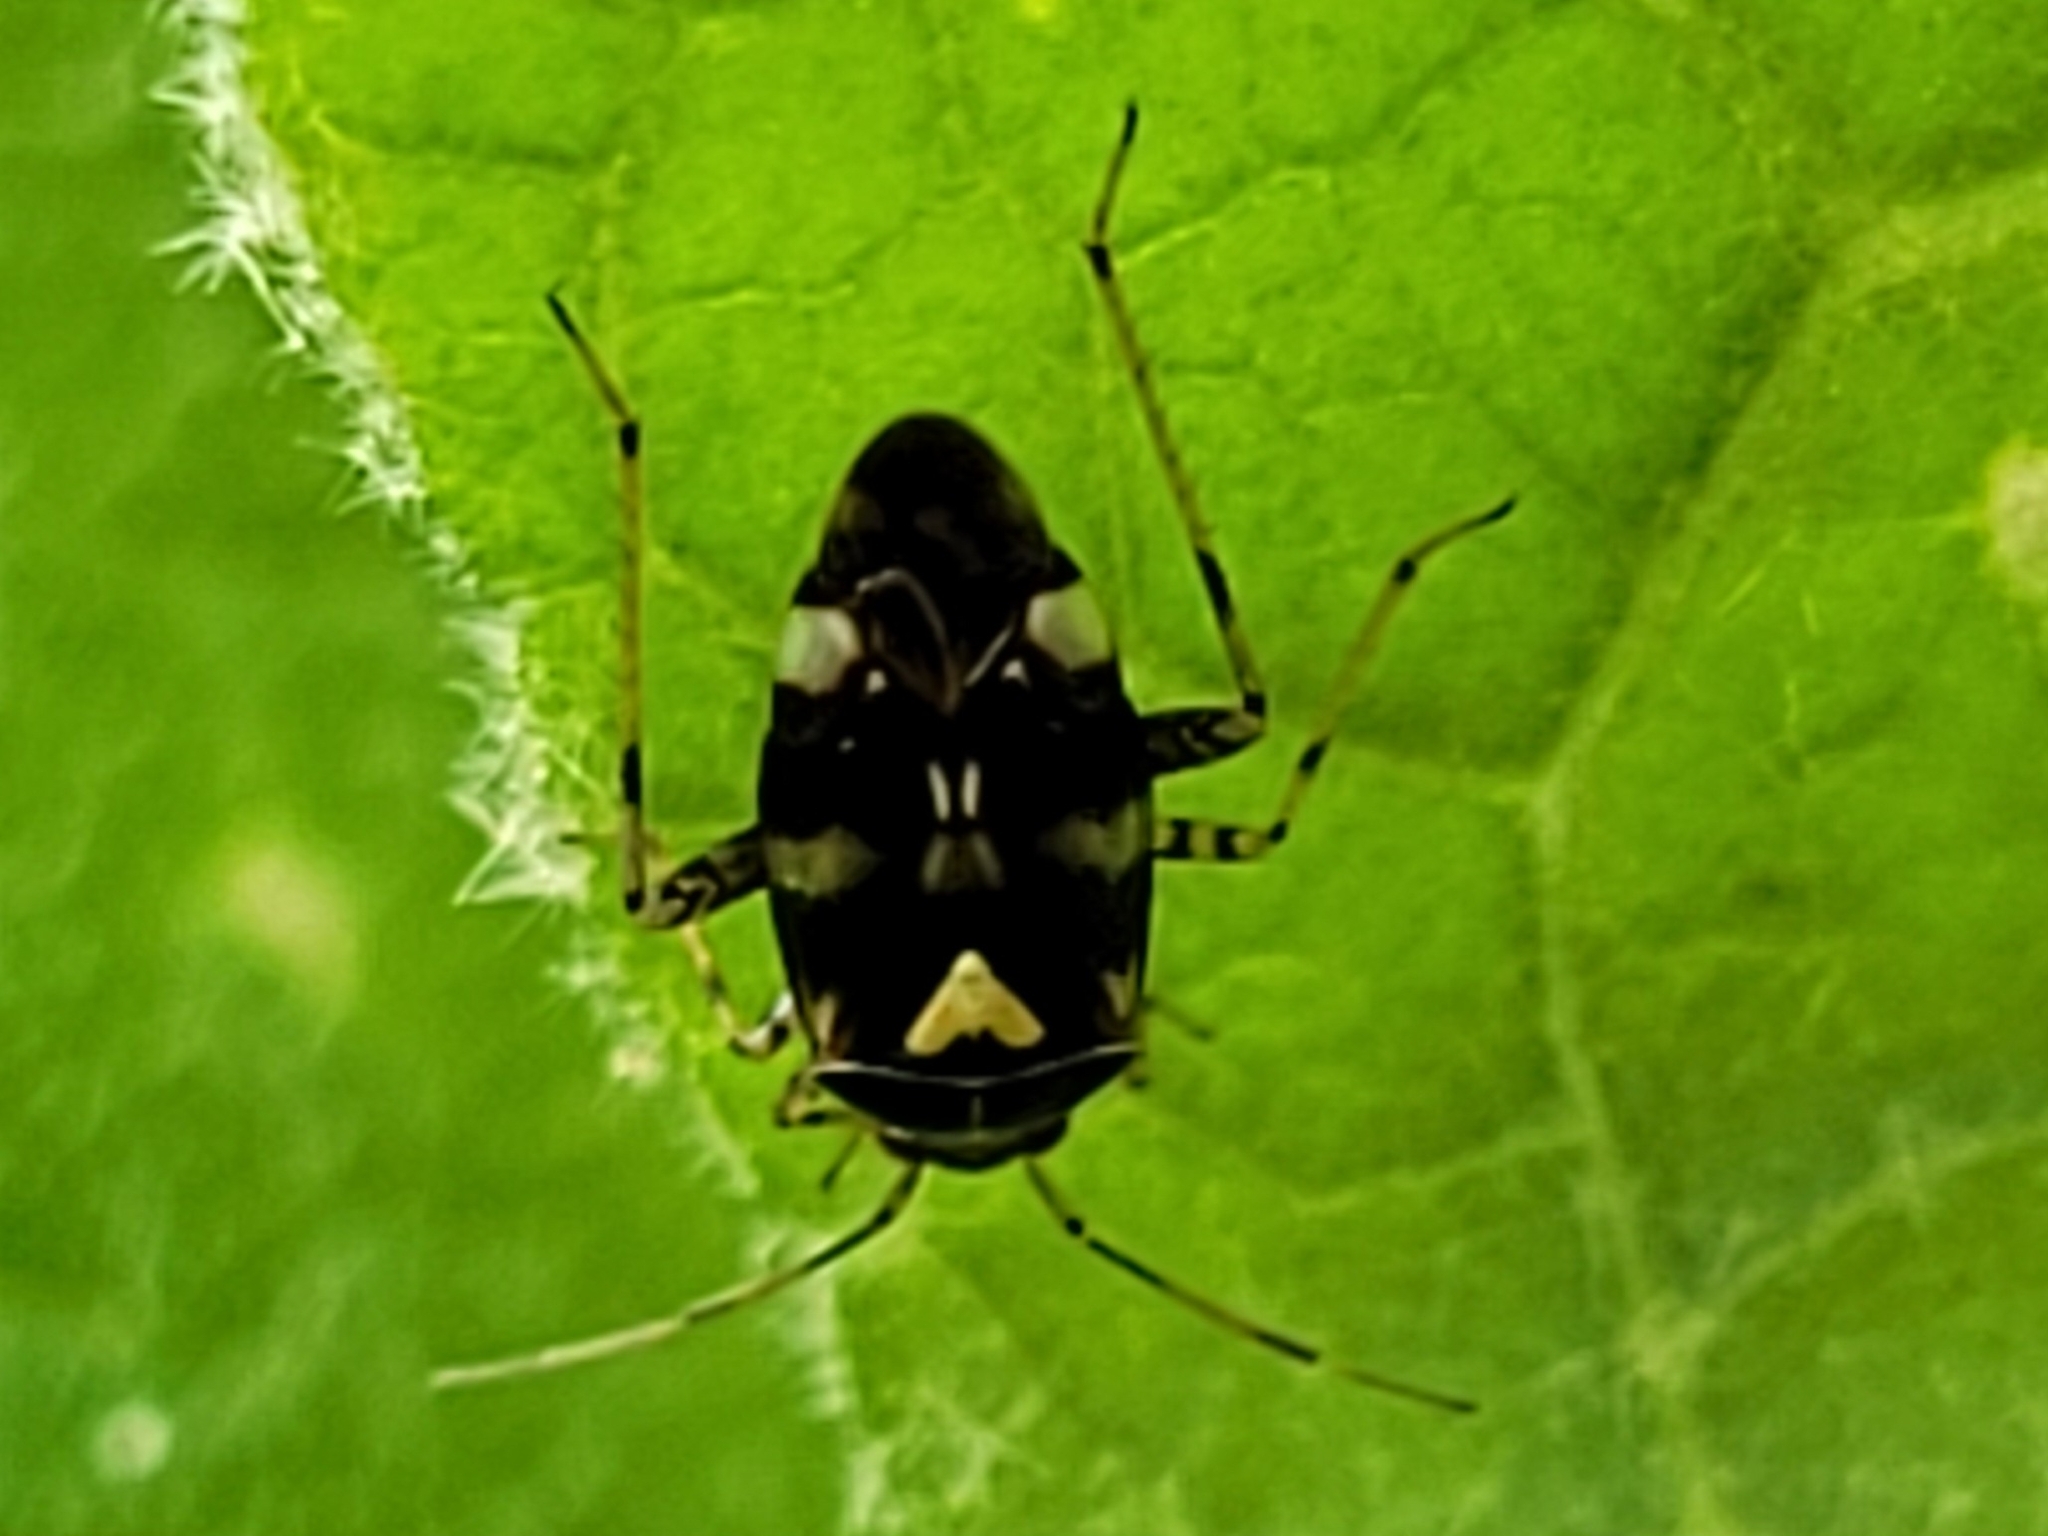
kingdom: Animalia
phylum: Arthropoda
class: Insecta
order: Hemiptera
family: Miridae
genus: Liocoris
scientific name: Liocoris tripustulatus
